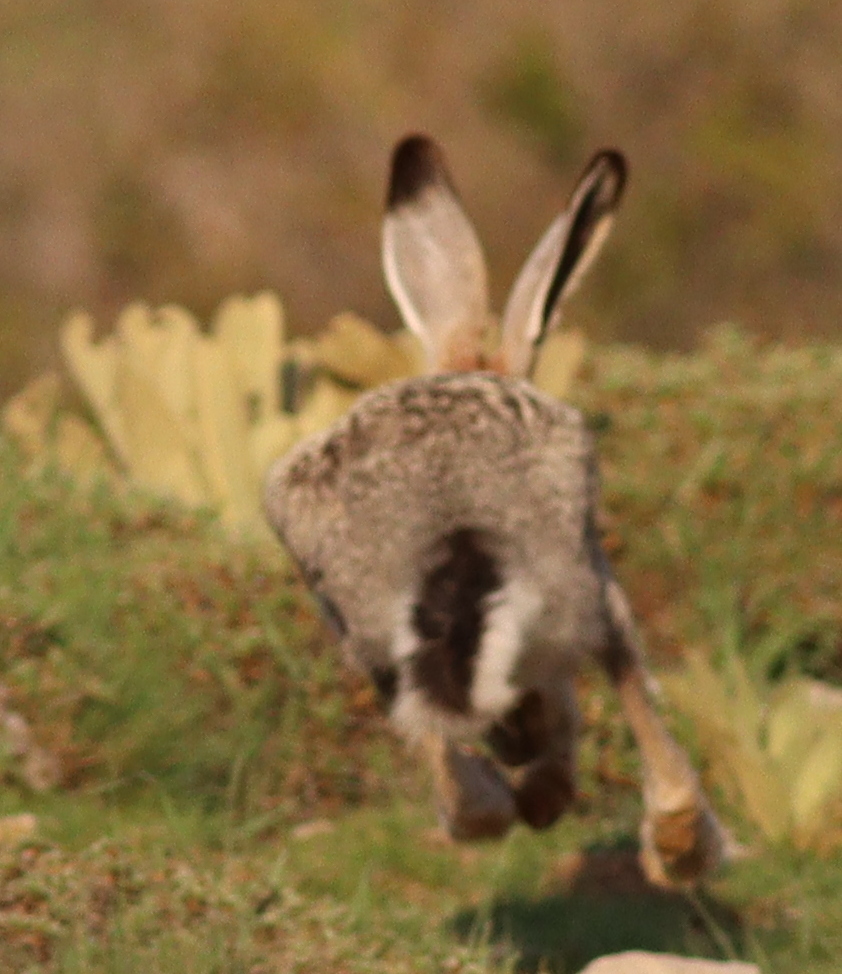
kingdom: Animalia
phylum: Chordata
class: Mammalia
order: Lagomorpha
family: Leporidae
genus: Lepus
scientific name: Lepus europaeus
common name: European hare
